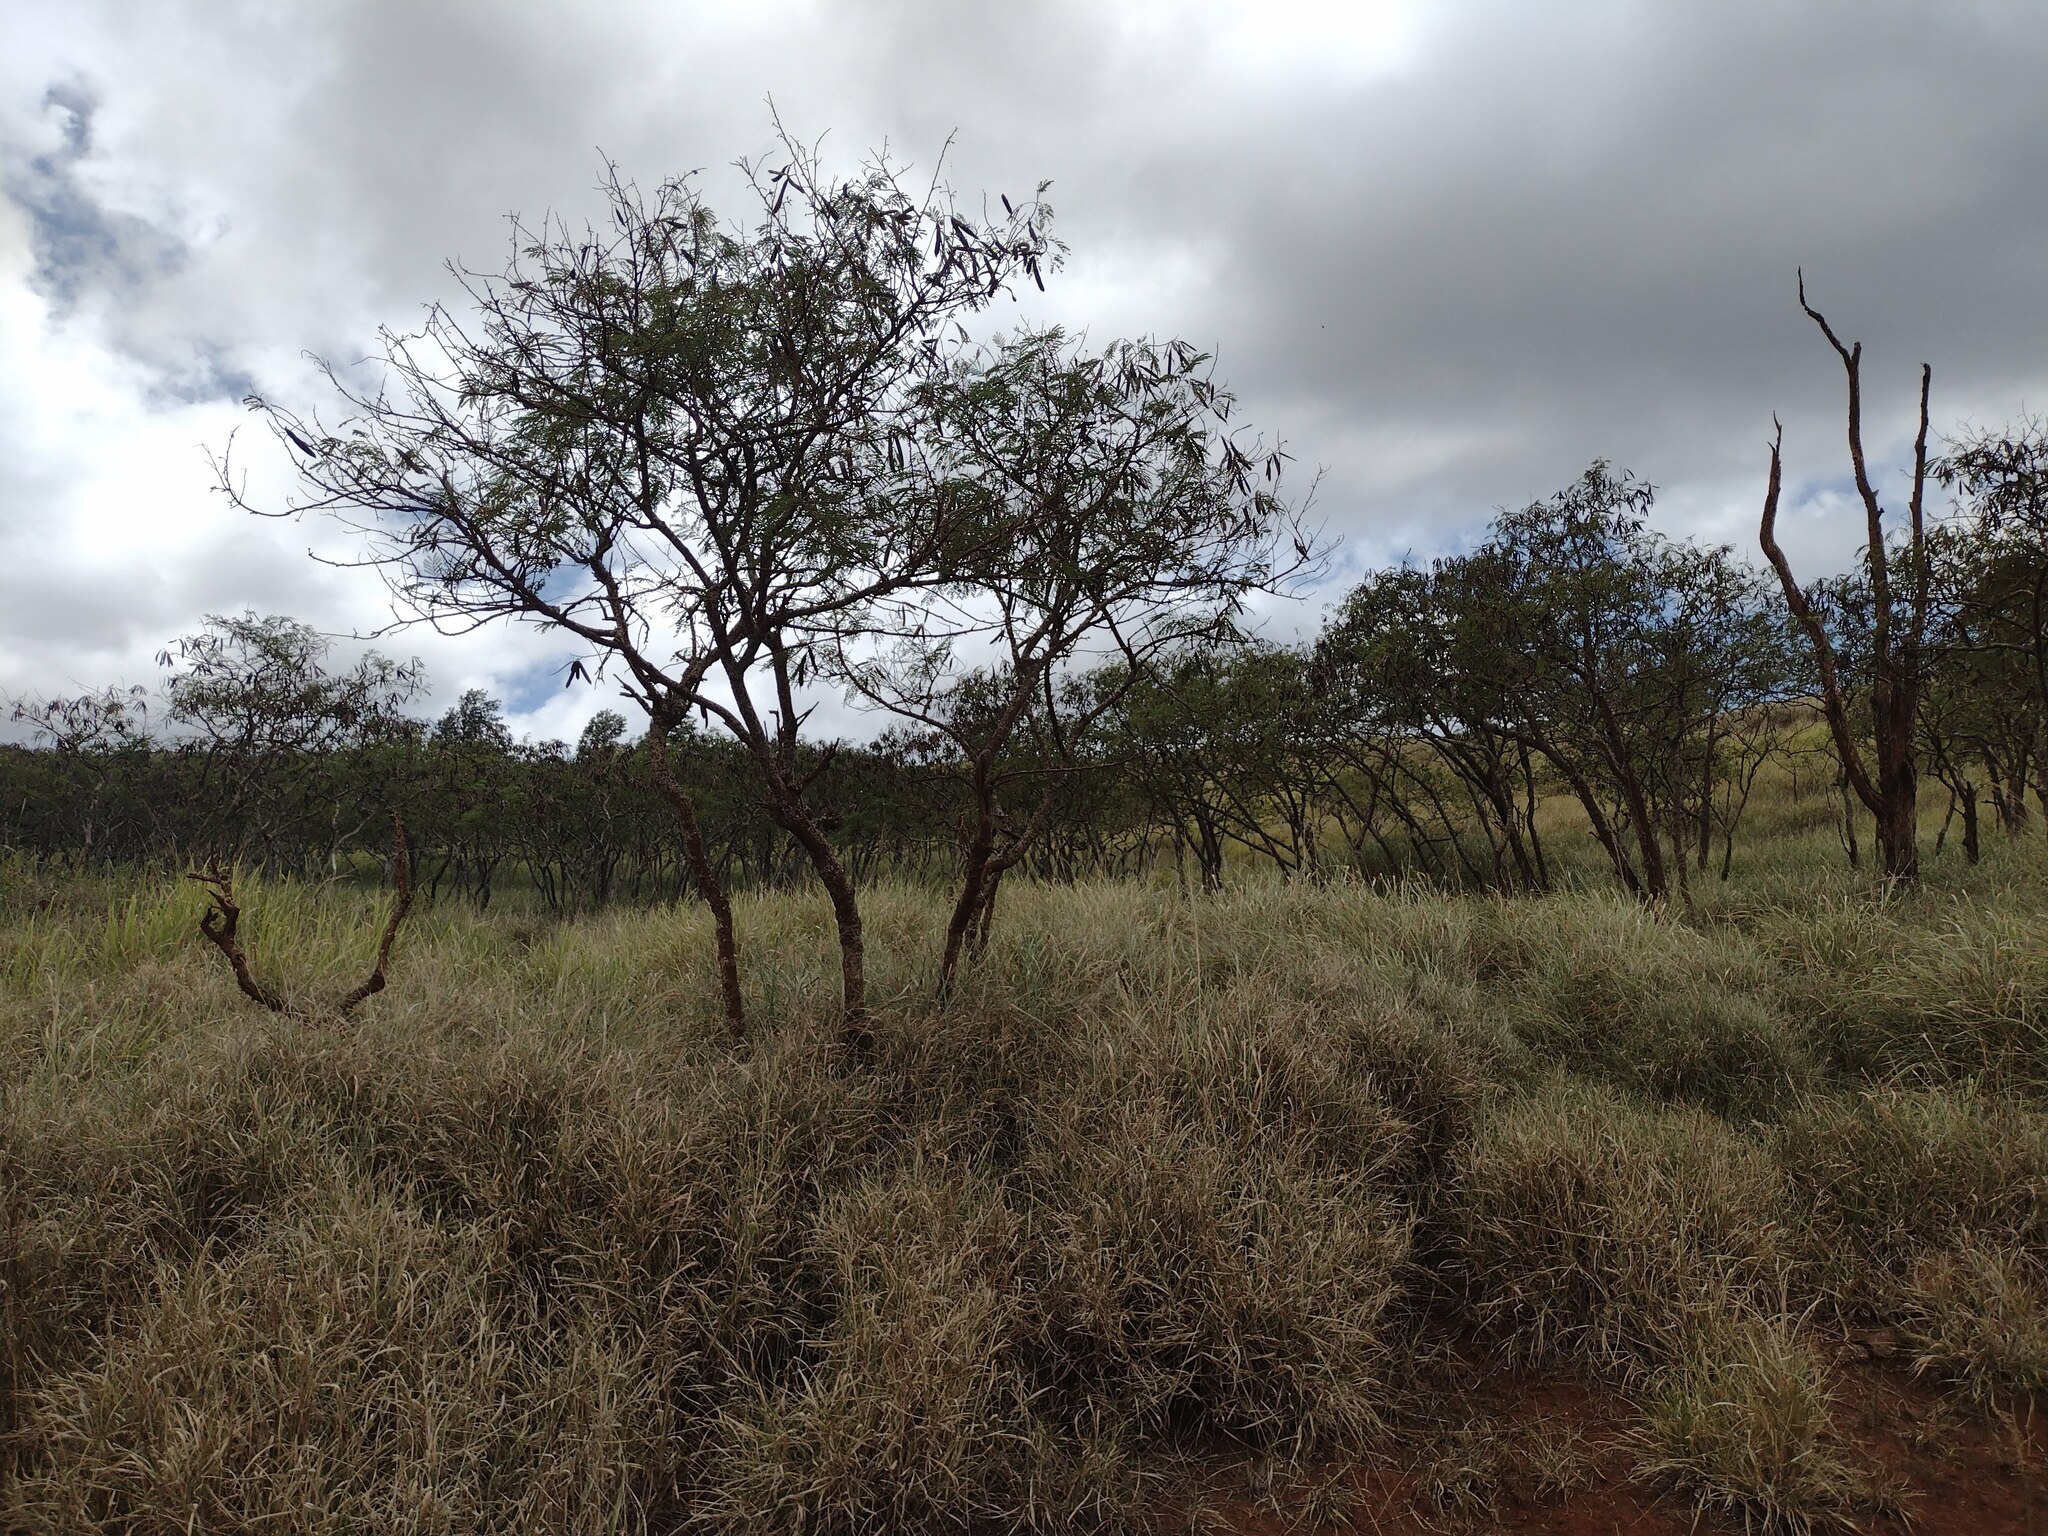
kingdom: Plantae
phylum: Tracheophyta
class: Magnoliopsida
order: Fabales
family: Fabaceae
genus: Leucaena
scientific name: Leucaena leucocephala
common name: White leadtree
